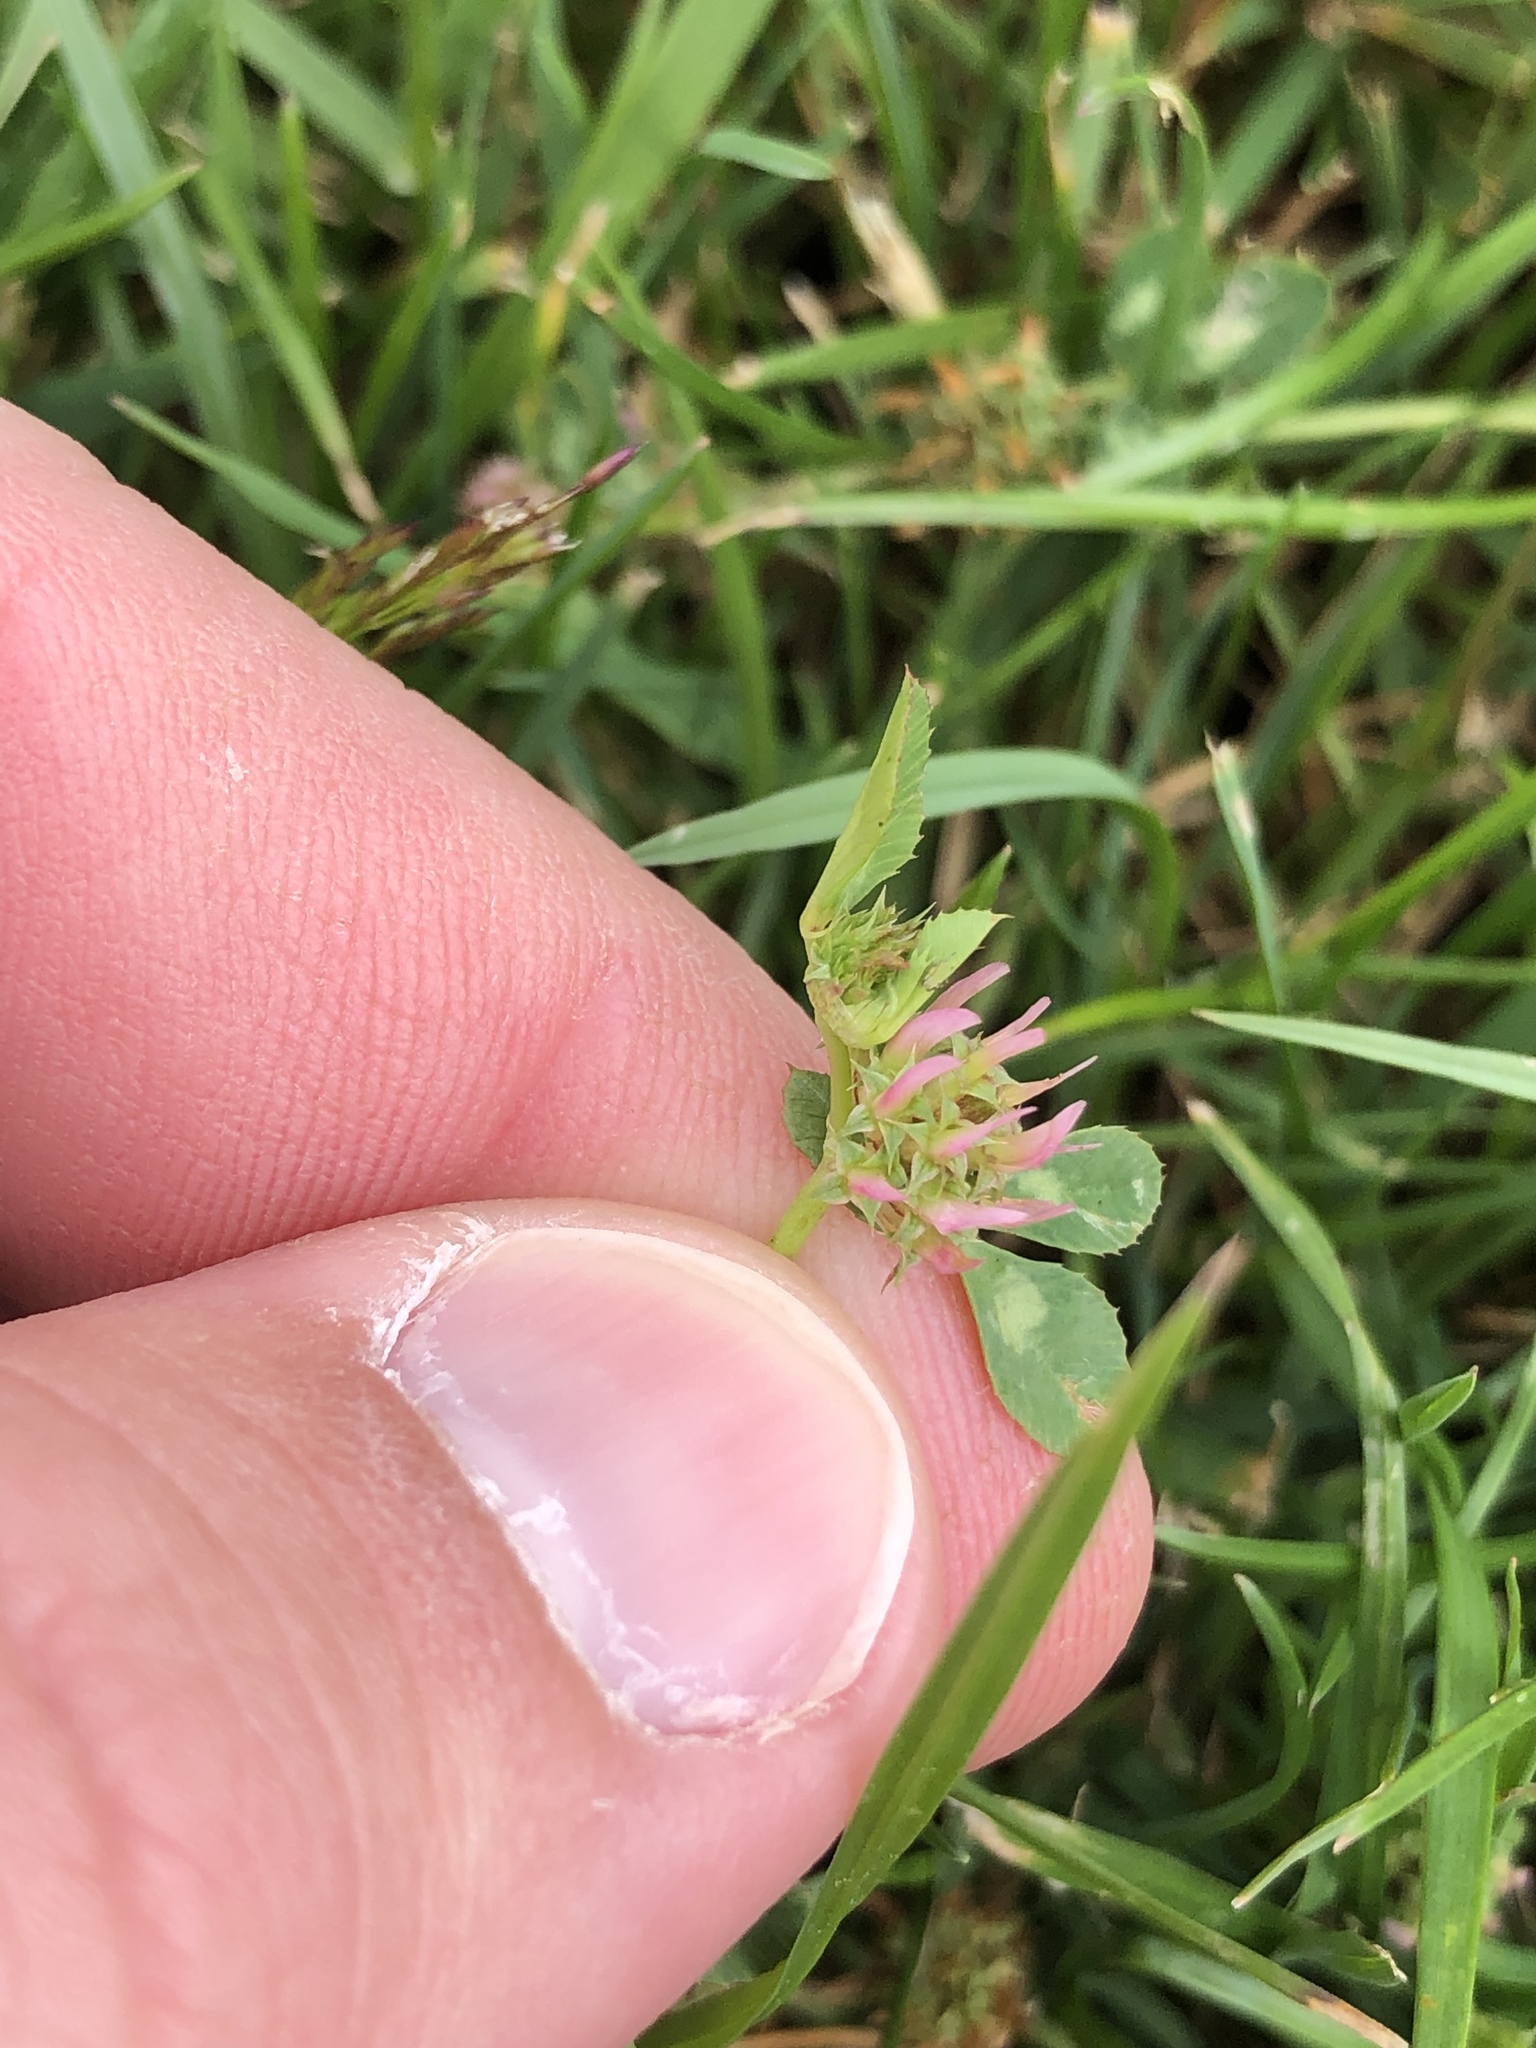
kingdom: Plantae
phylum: Tracheophyta
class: Magnoliopsida
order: Fabales
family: Fabaceae
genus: Trifolium
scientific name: Trifolium glomeratum
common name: Clustered clover
